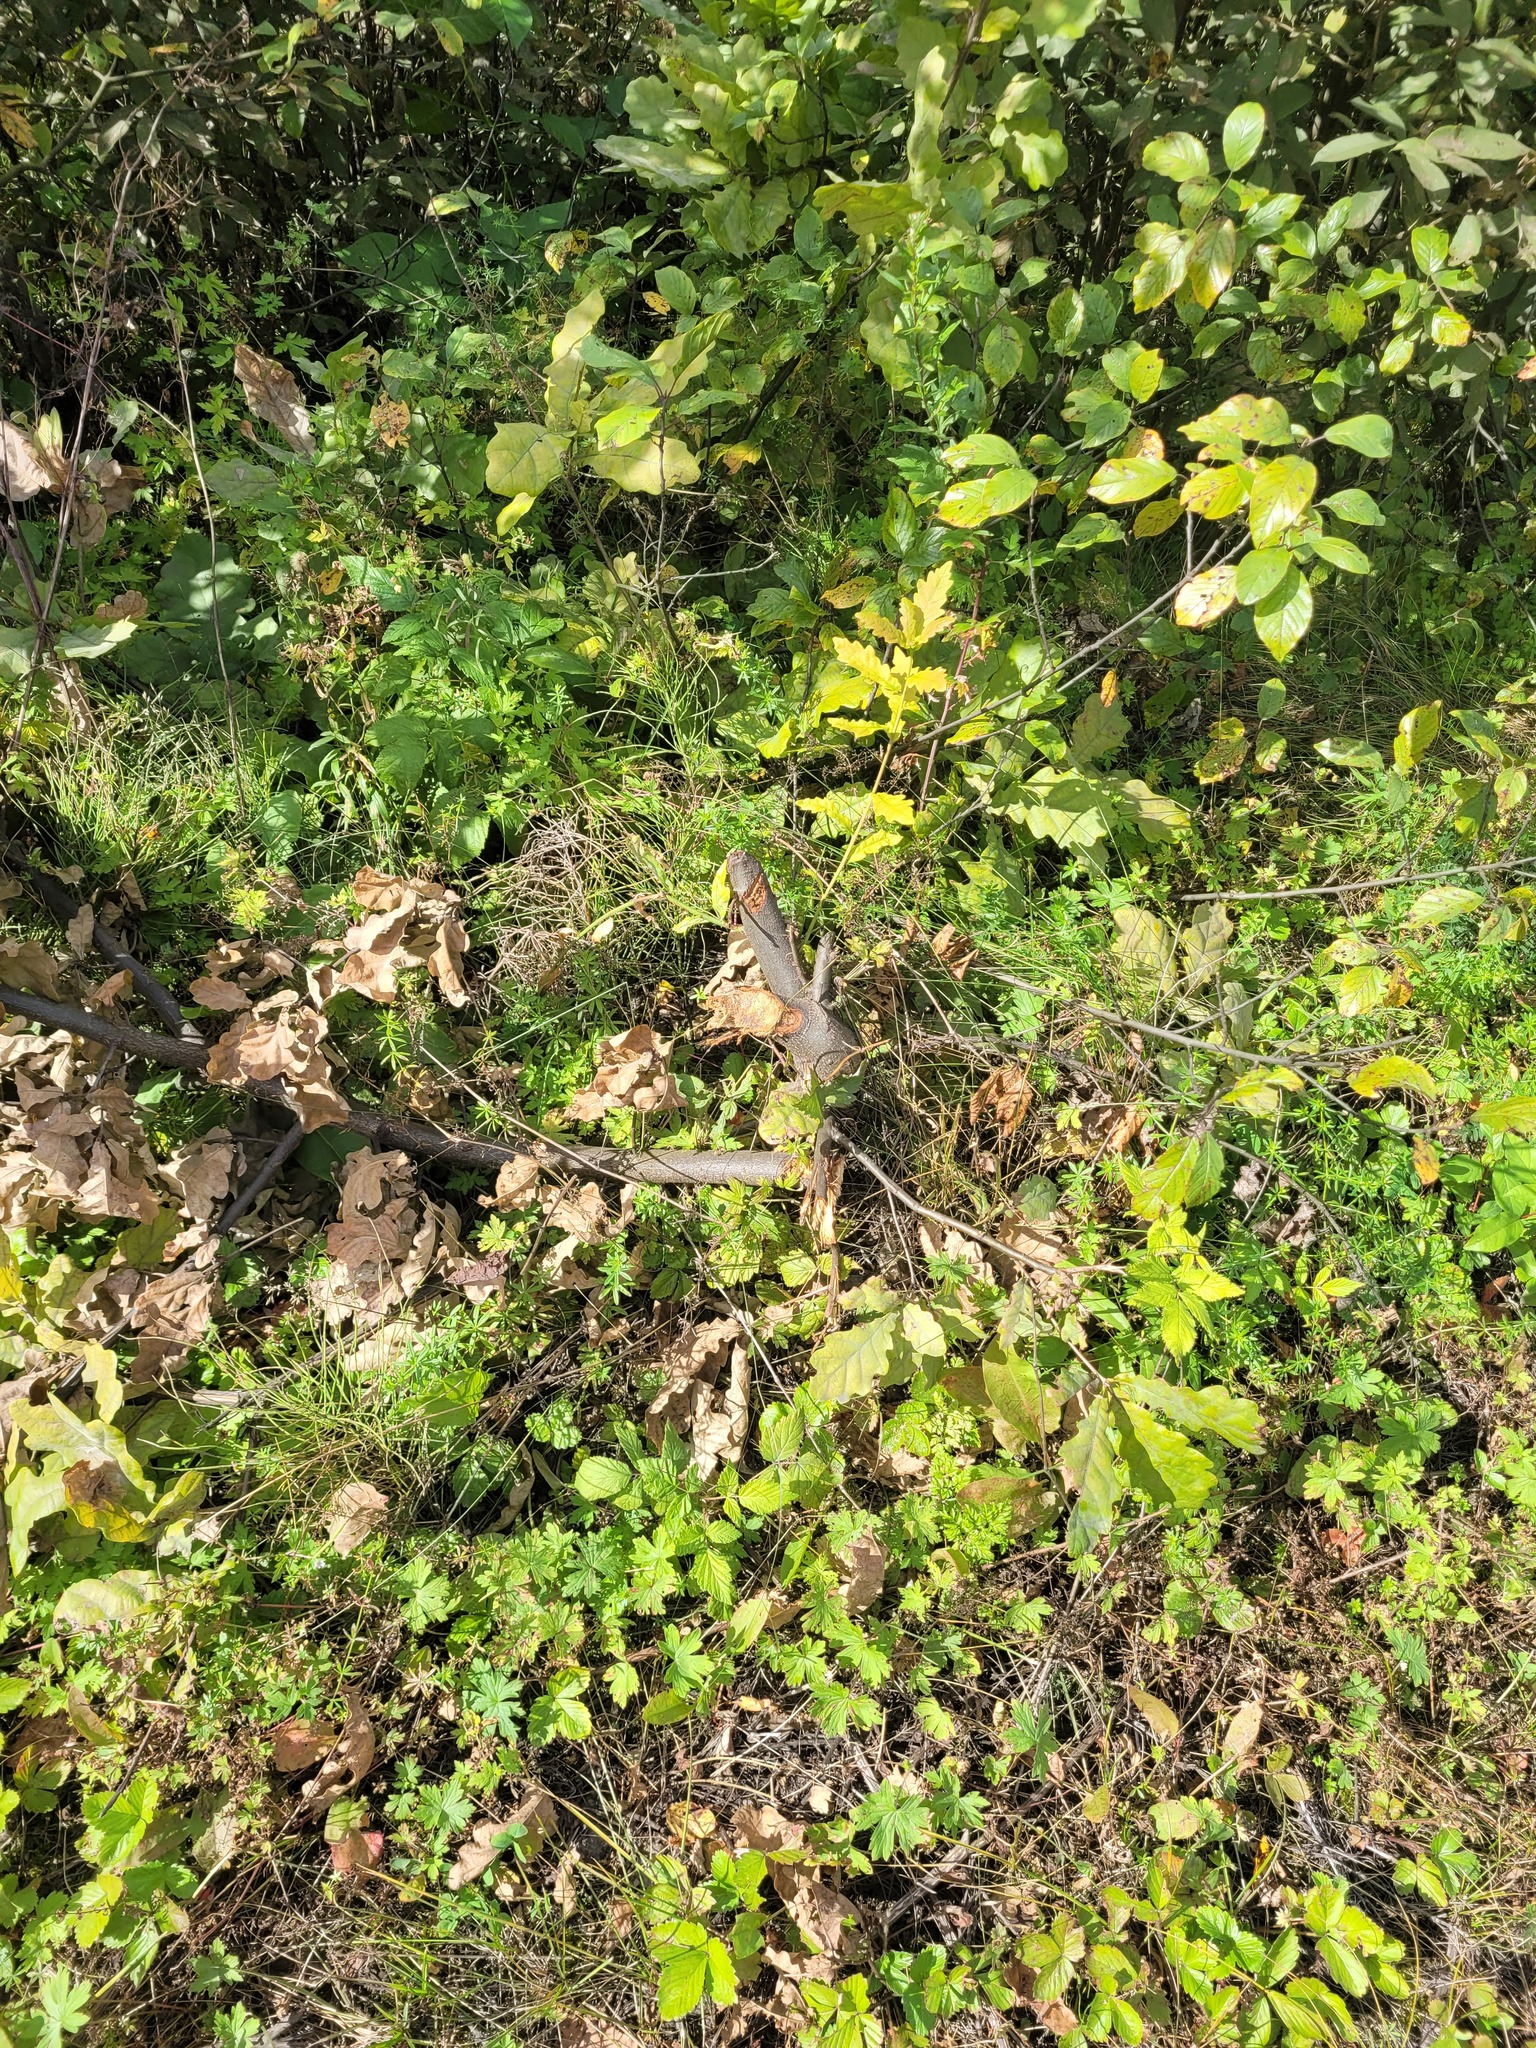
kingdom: Plantae
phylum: Tracheophyta
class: Magnoliopsida
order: Fagales
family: Fagaceae
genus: Quercus
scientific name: Quercus robur
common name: Pedunculate oak
